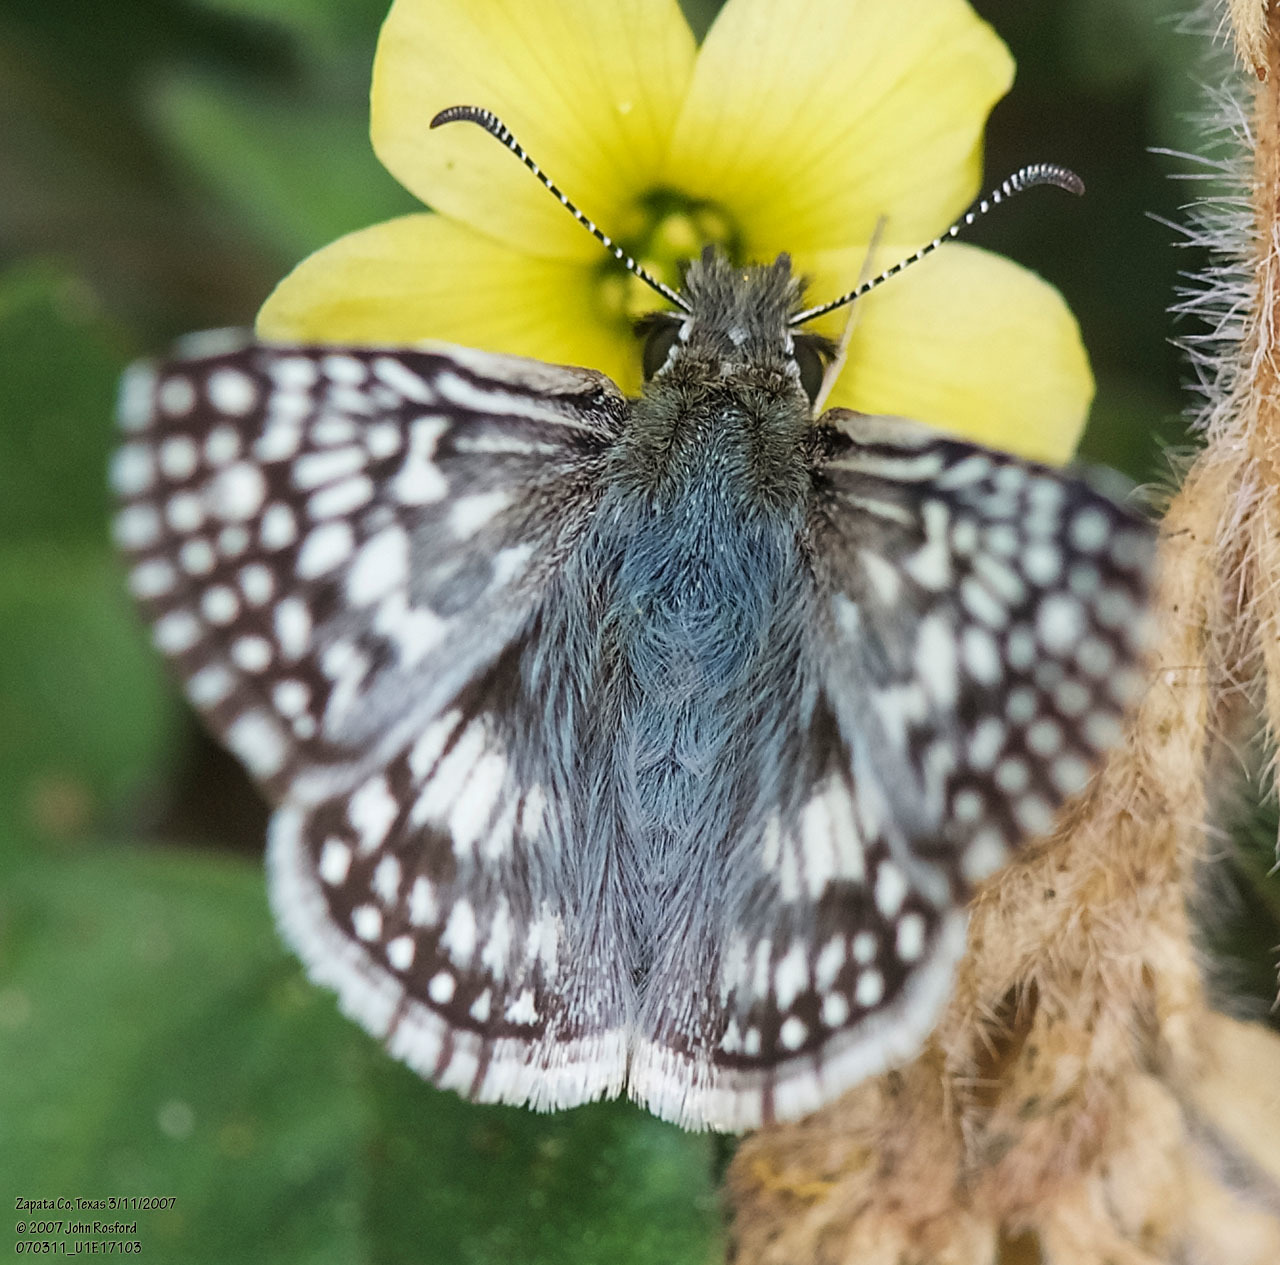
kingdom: Animalia
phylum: Arthropoda
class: Insecta
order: Lepidoptera
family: Hesperiidae
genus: Burnsius
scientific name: Burnsius philetas
